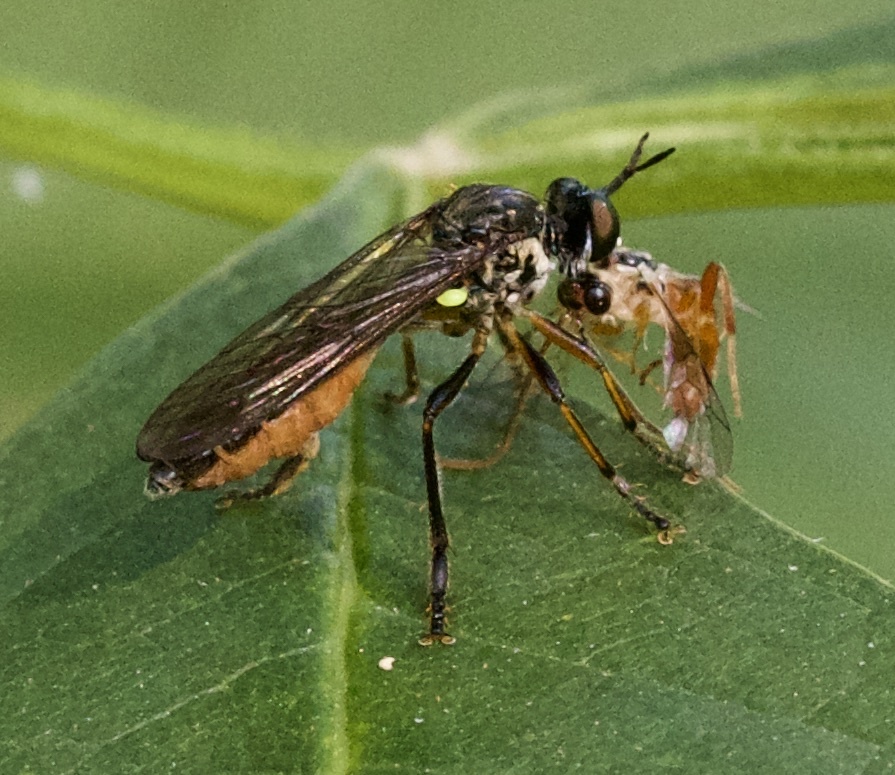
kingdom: Animalia
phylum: Arthropoda
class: Insecta
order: Diptera
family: Asilidae
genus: Dioctria
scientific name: Dioctria hyalipennis
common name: Stripe-legged robberfly
